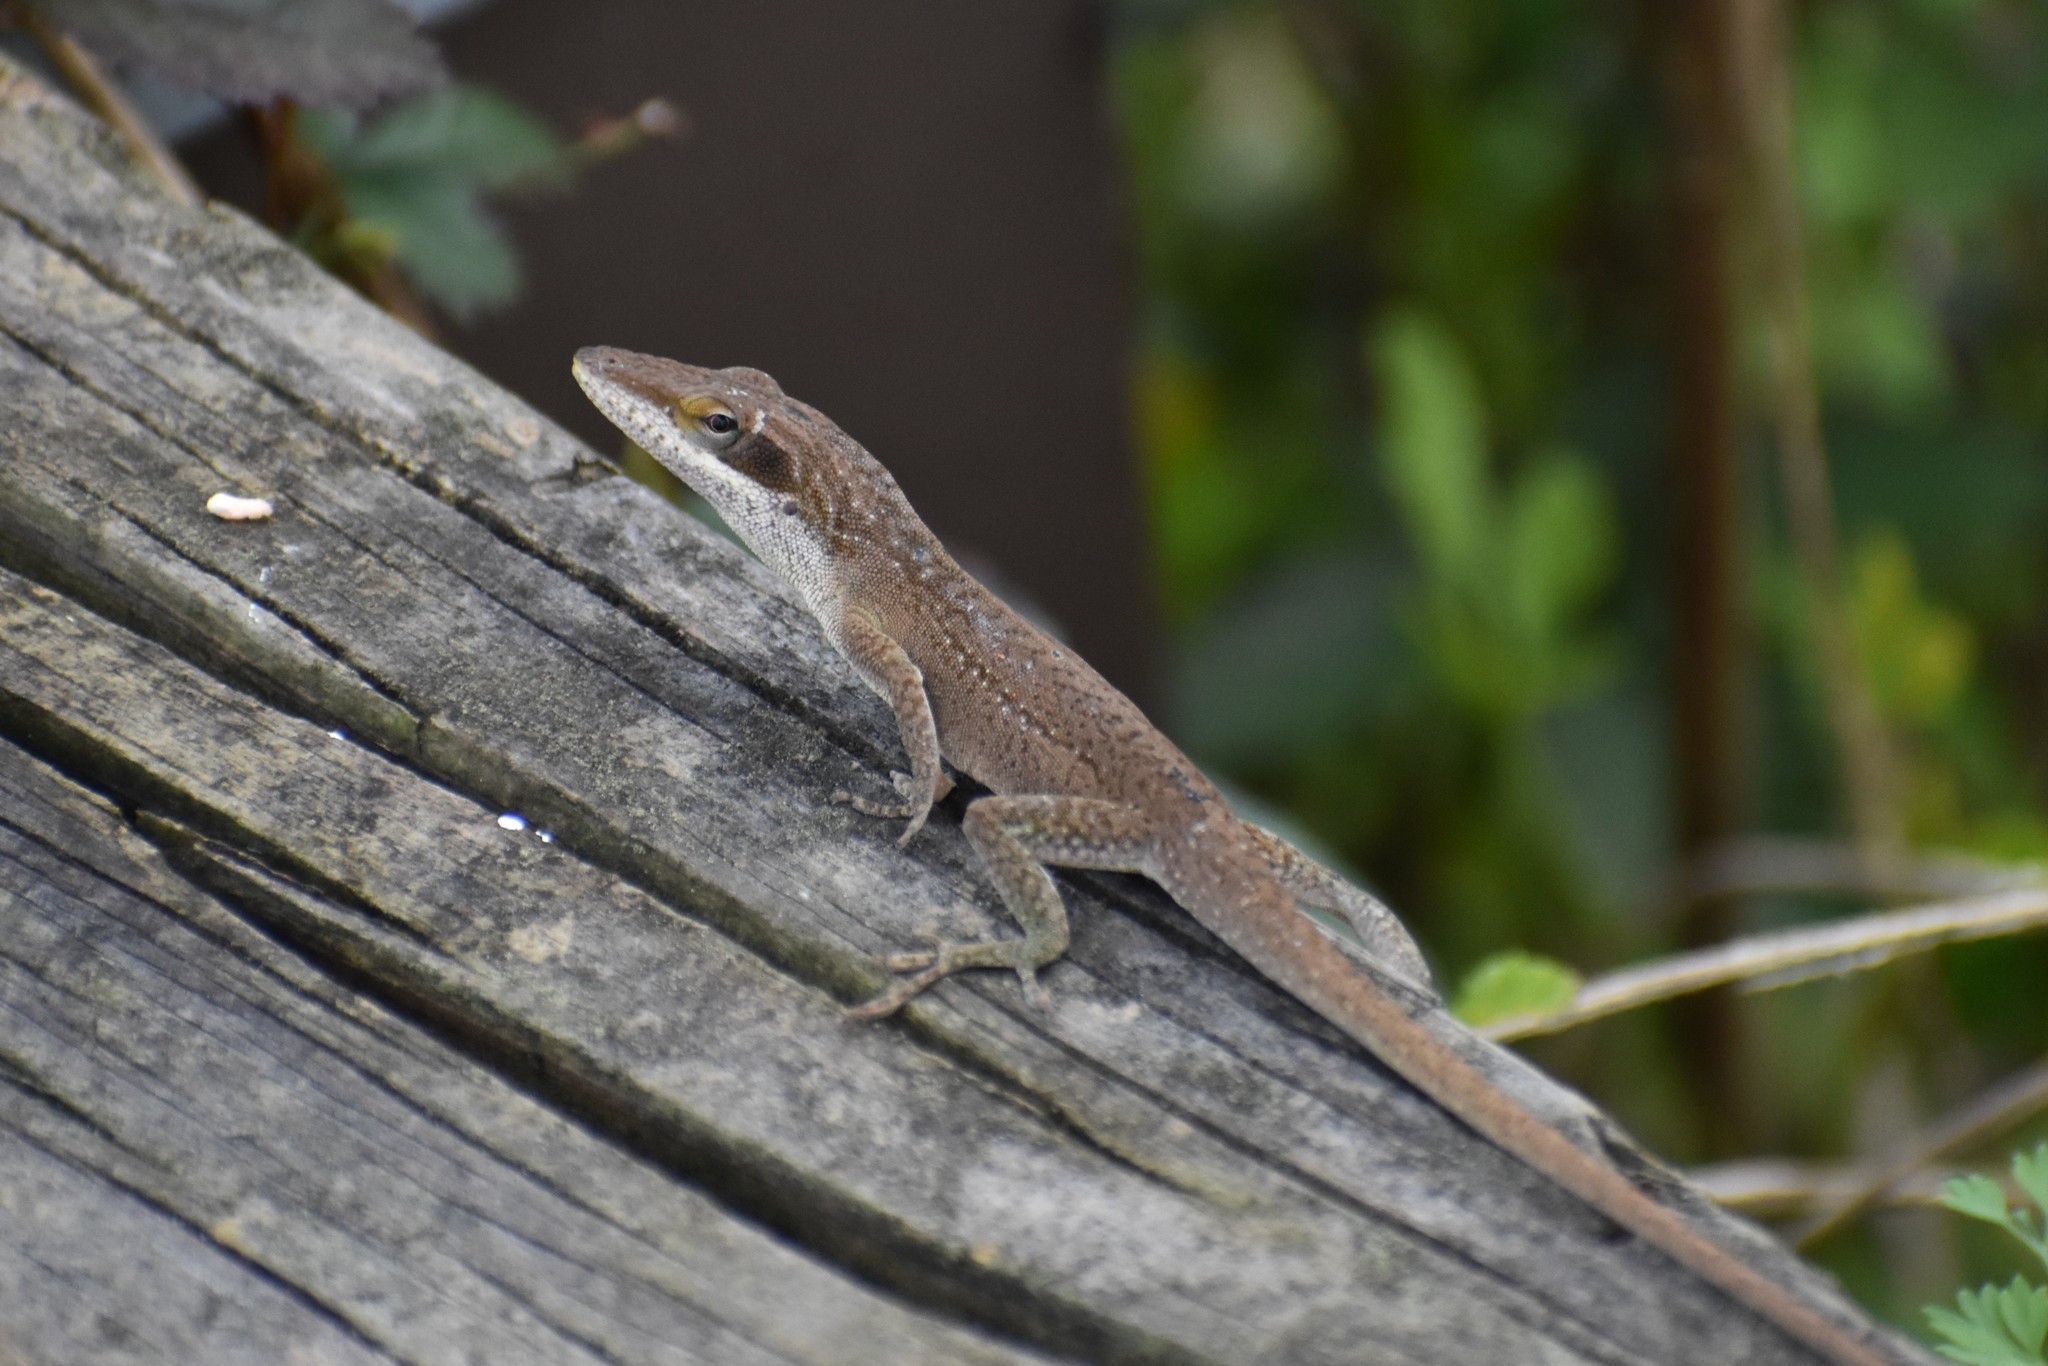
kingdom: Animalia
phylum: Chordata
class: Squamata
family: Dactyloidae
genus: Anolis
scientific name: Anolis carolinensis
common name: Green anole
